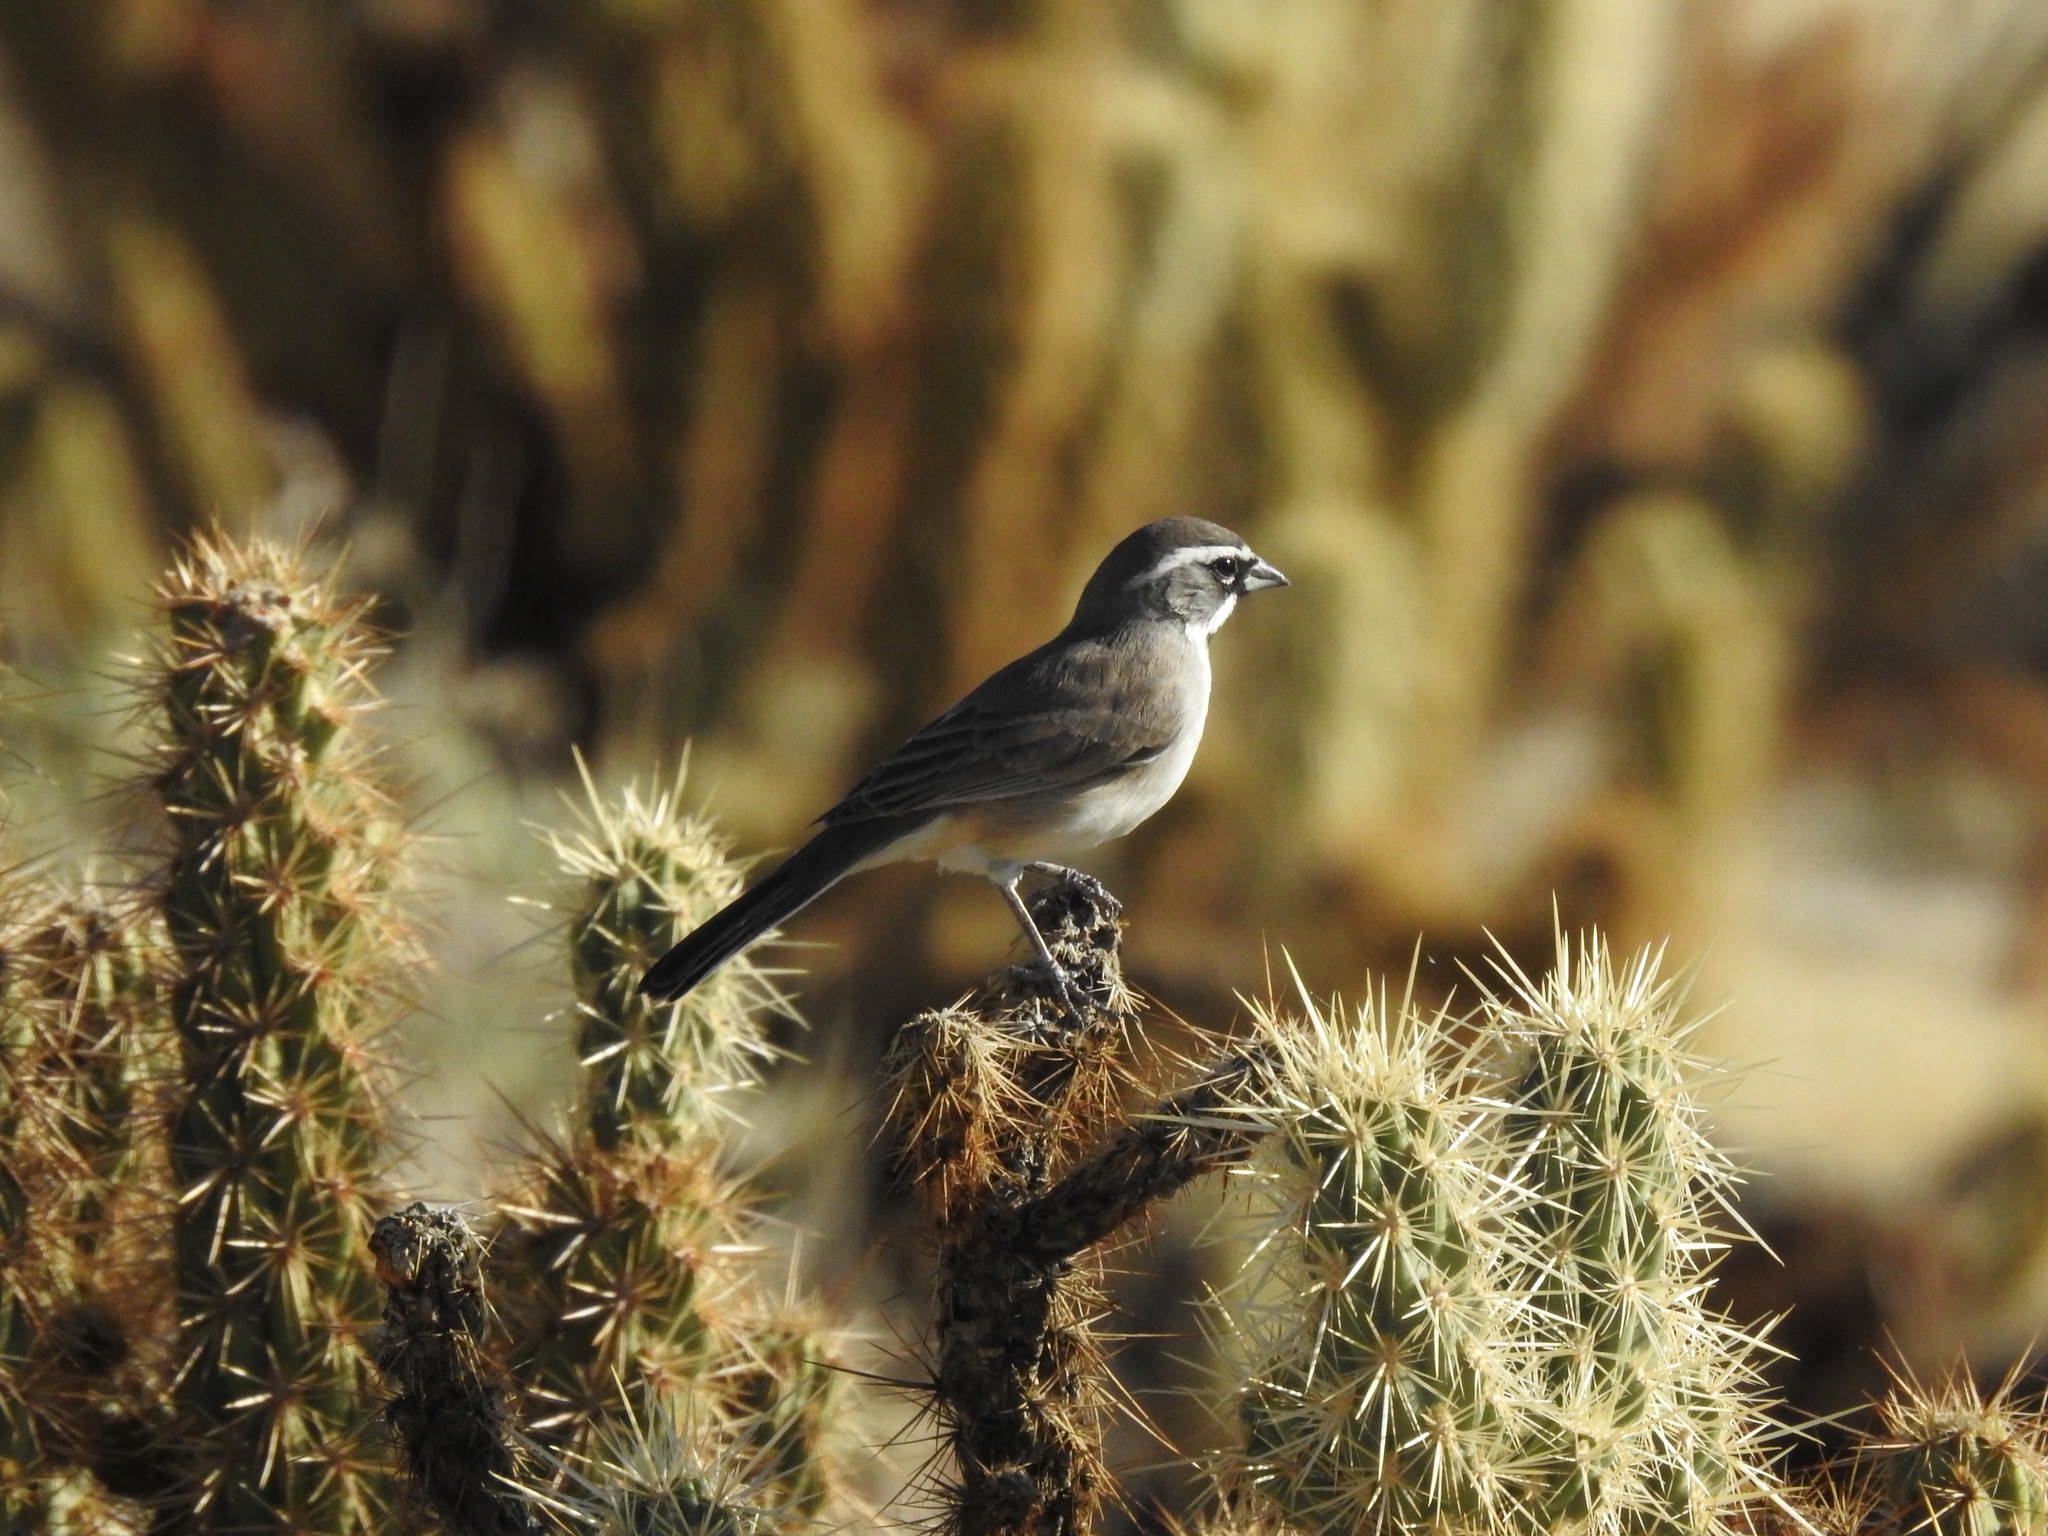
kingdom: Animalia
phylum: Chordata
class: Aves
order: Passeriformes
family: Passerellidae
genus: Amphispiza
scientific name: Amphispiza bilineata
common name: Black-throated sparrow
